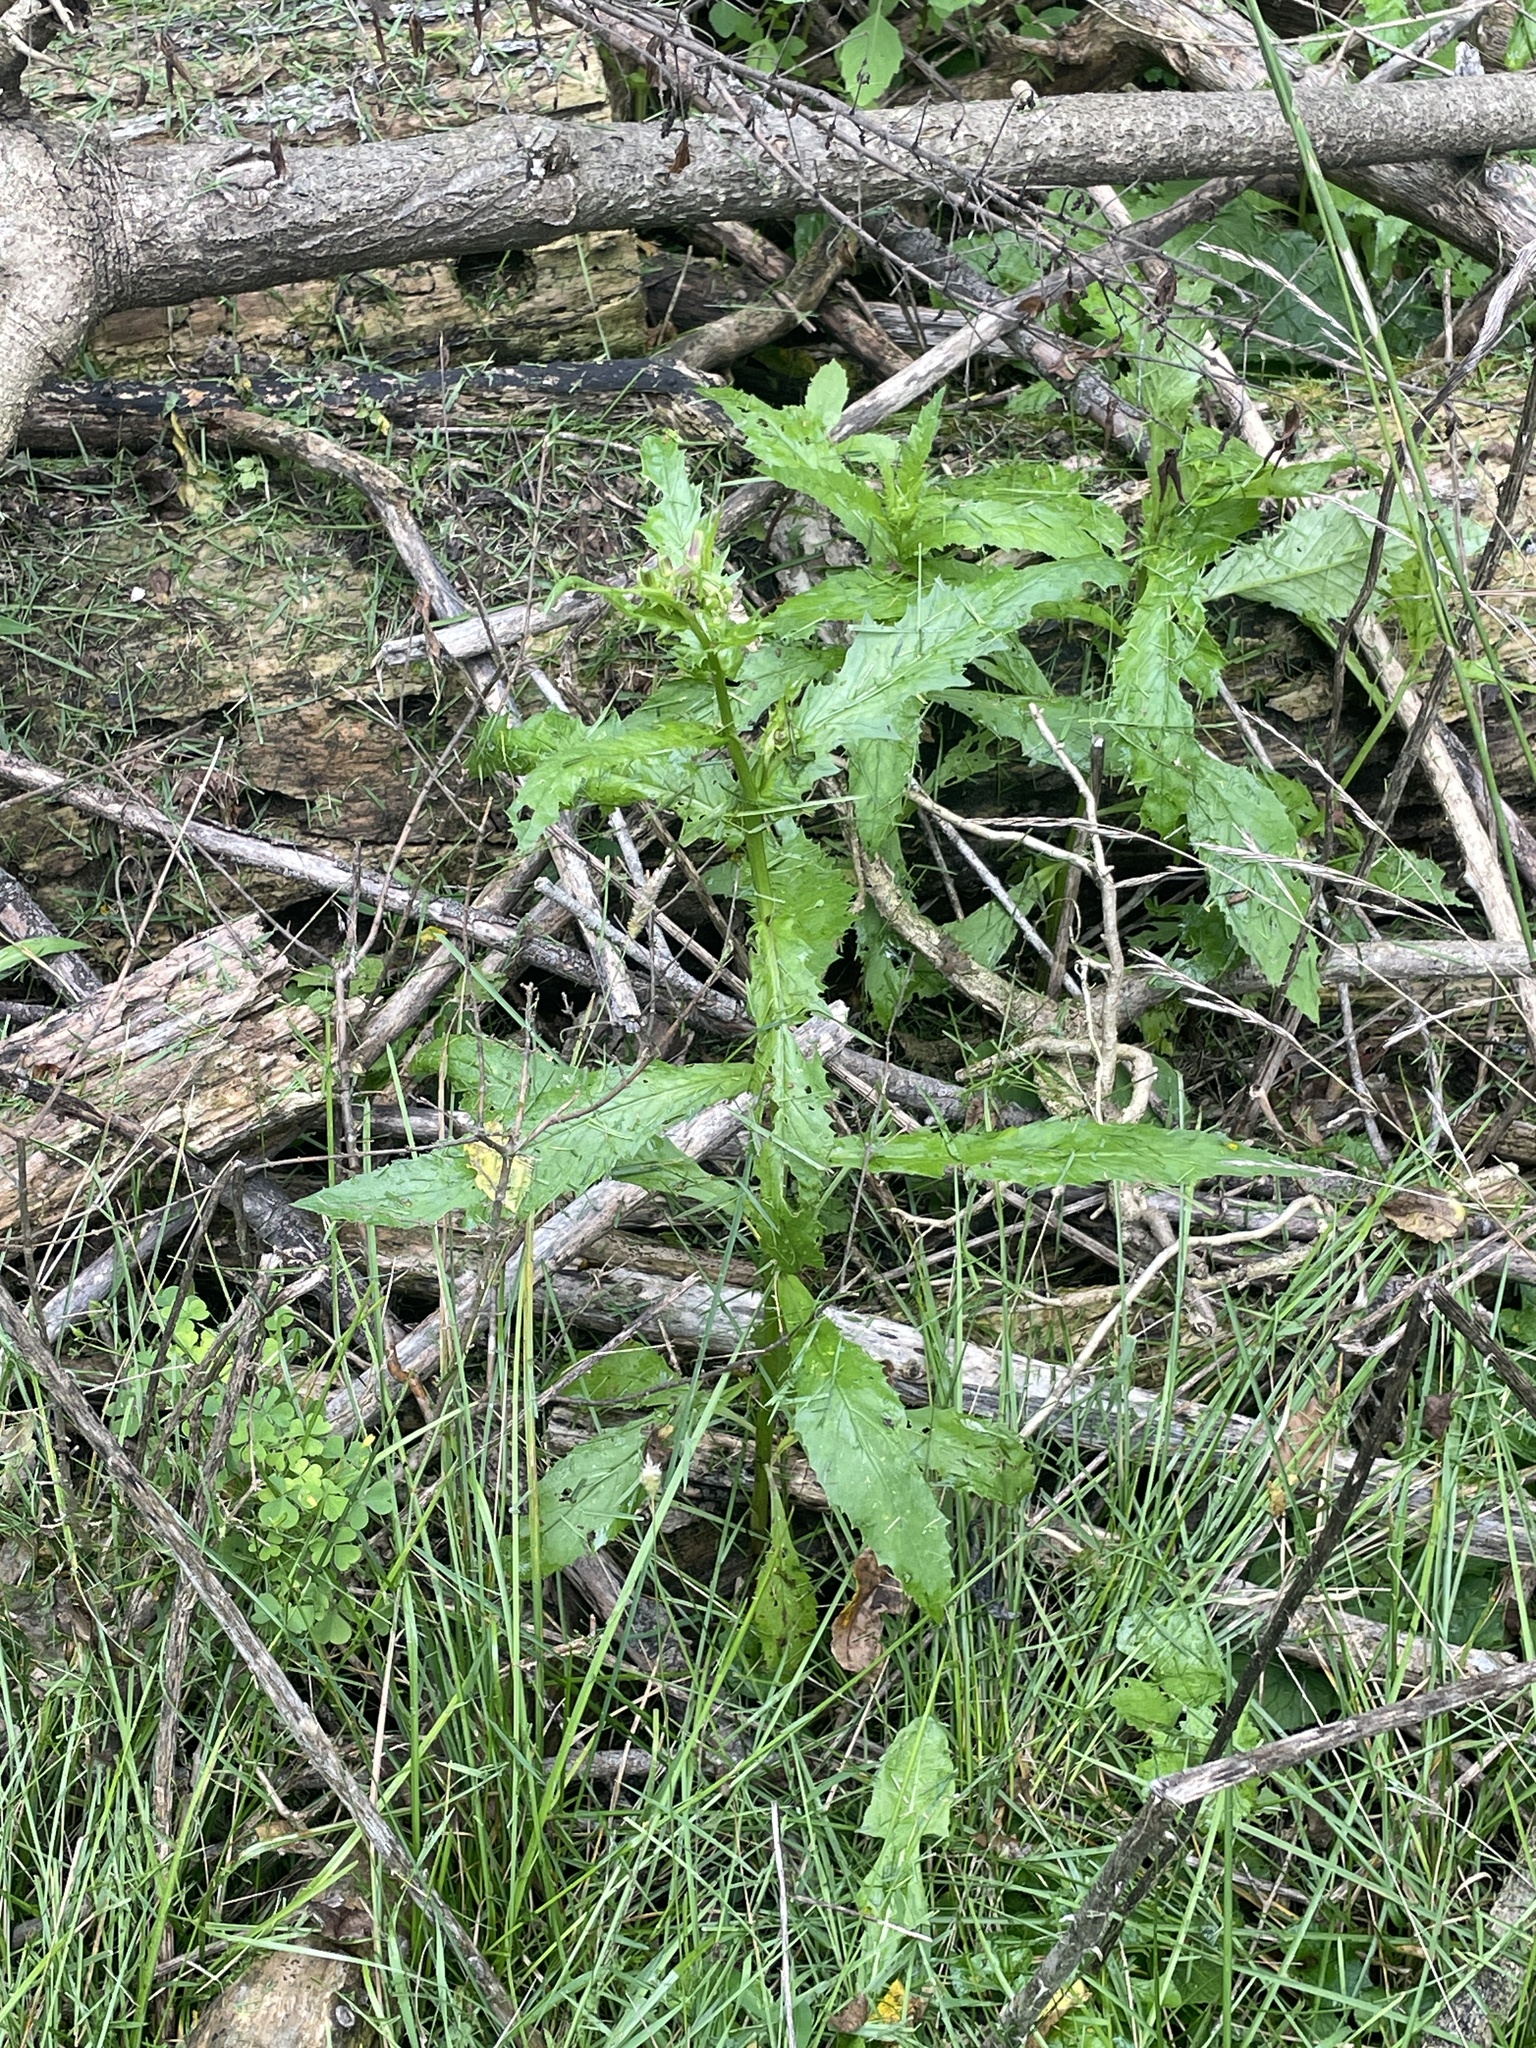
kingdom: Plantae
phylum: Tracheophyta
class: Magnoliopsida
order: Asterales
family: Asteraceae
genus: Erechtites
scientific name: Erechtites hieraciifolius
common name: American burnweed
